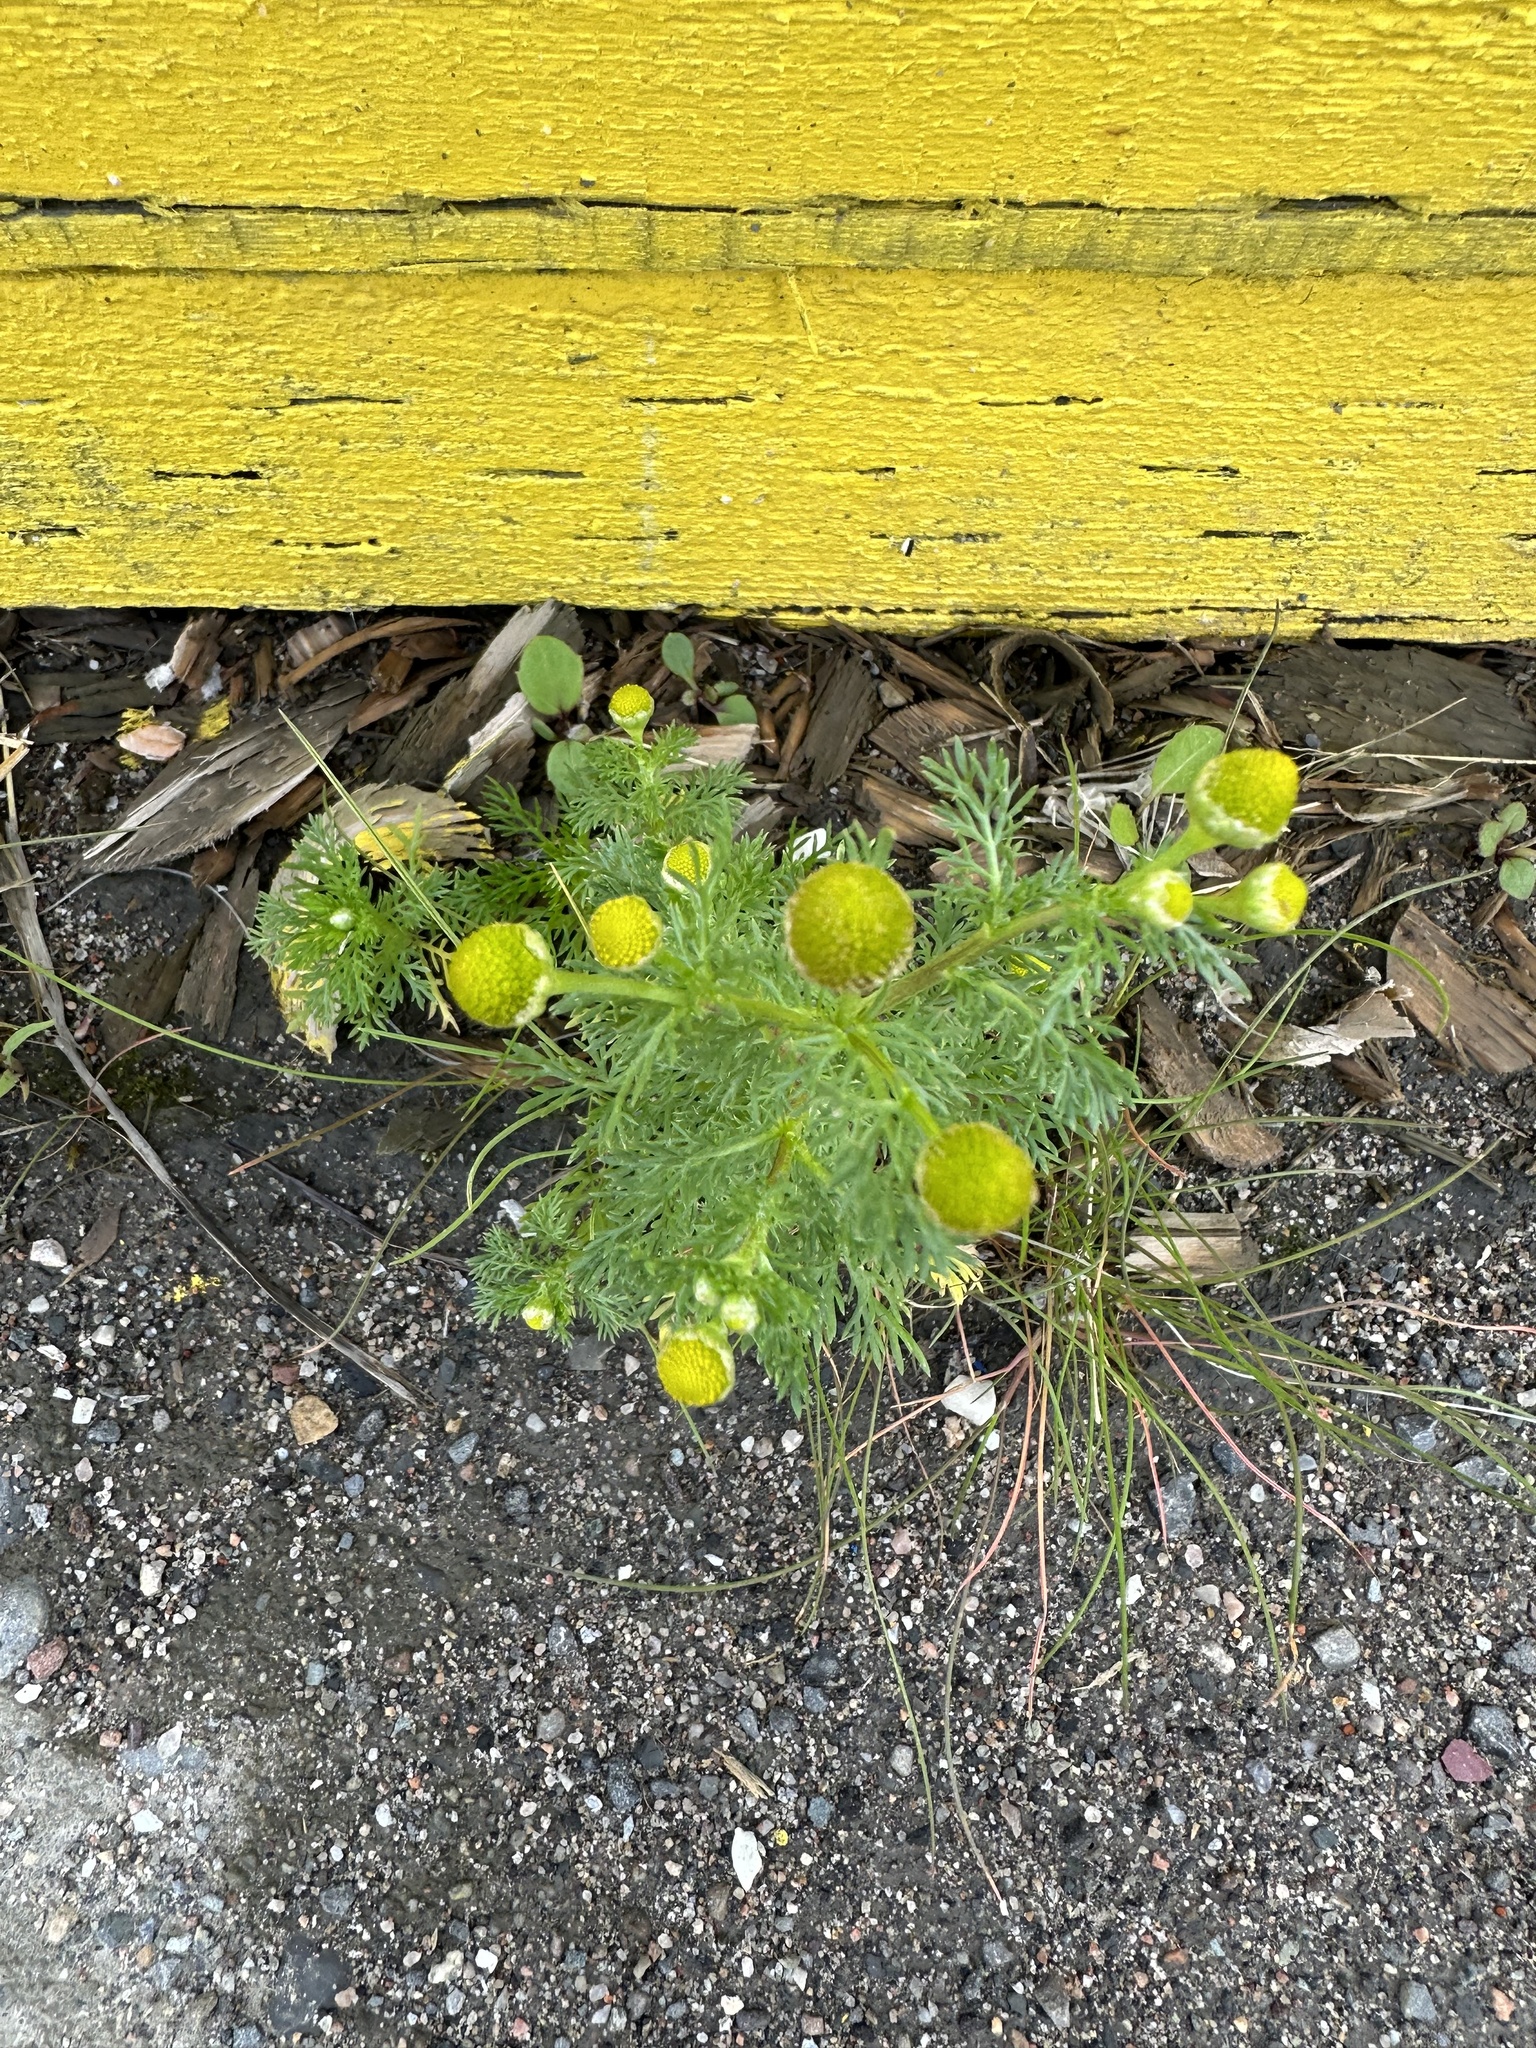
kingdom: Plantae
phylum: Tracheophyta
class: Magnoliopsida
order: Asterales
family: Asteraceae
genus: Matricaria
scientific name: Matricaria discoidea
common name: Disc mayweed
